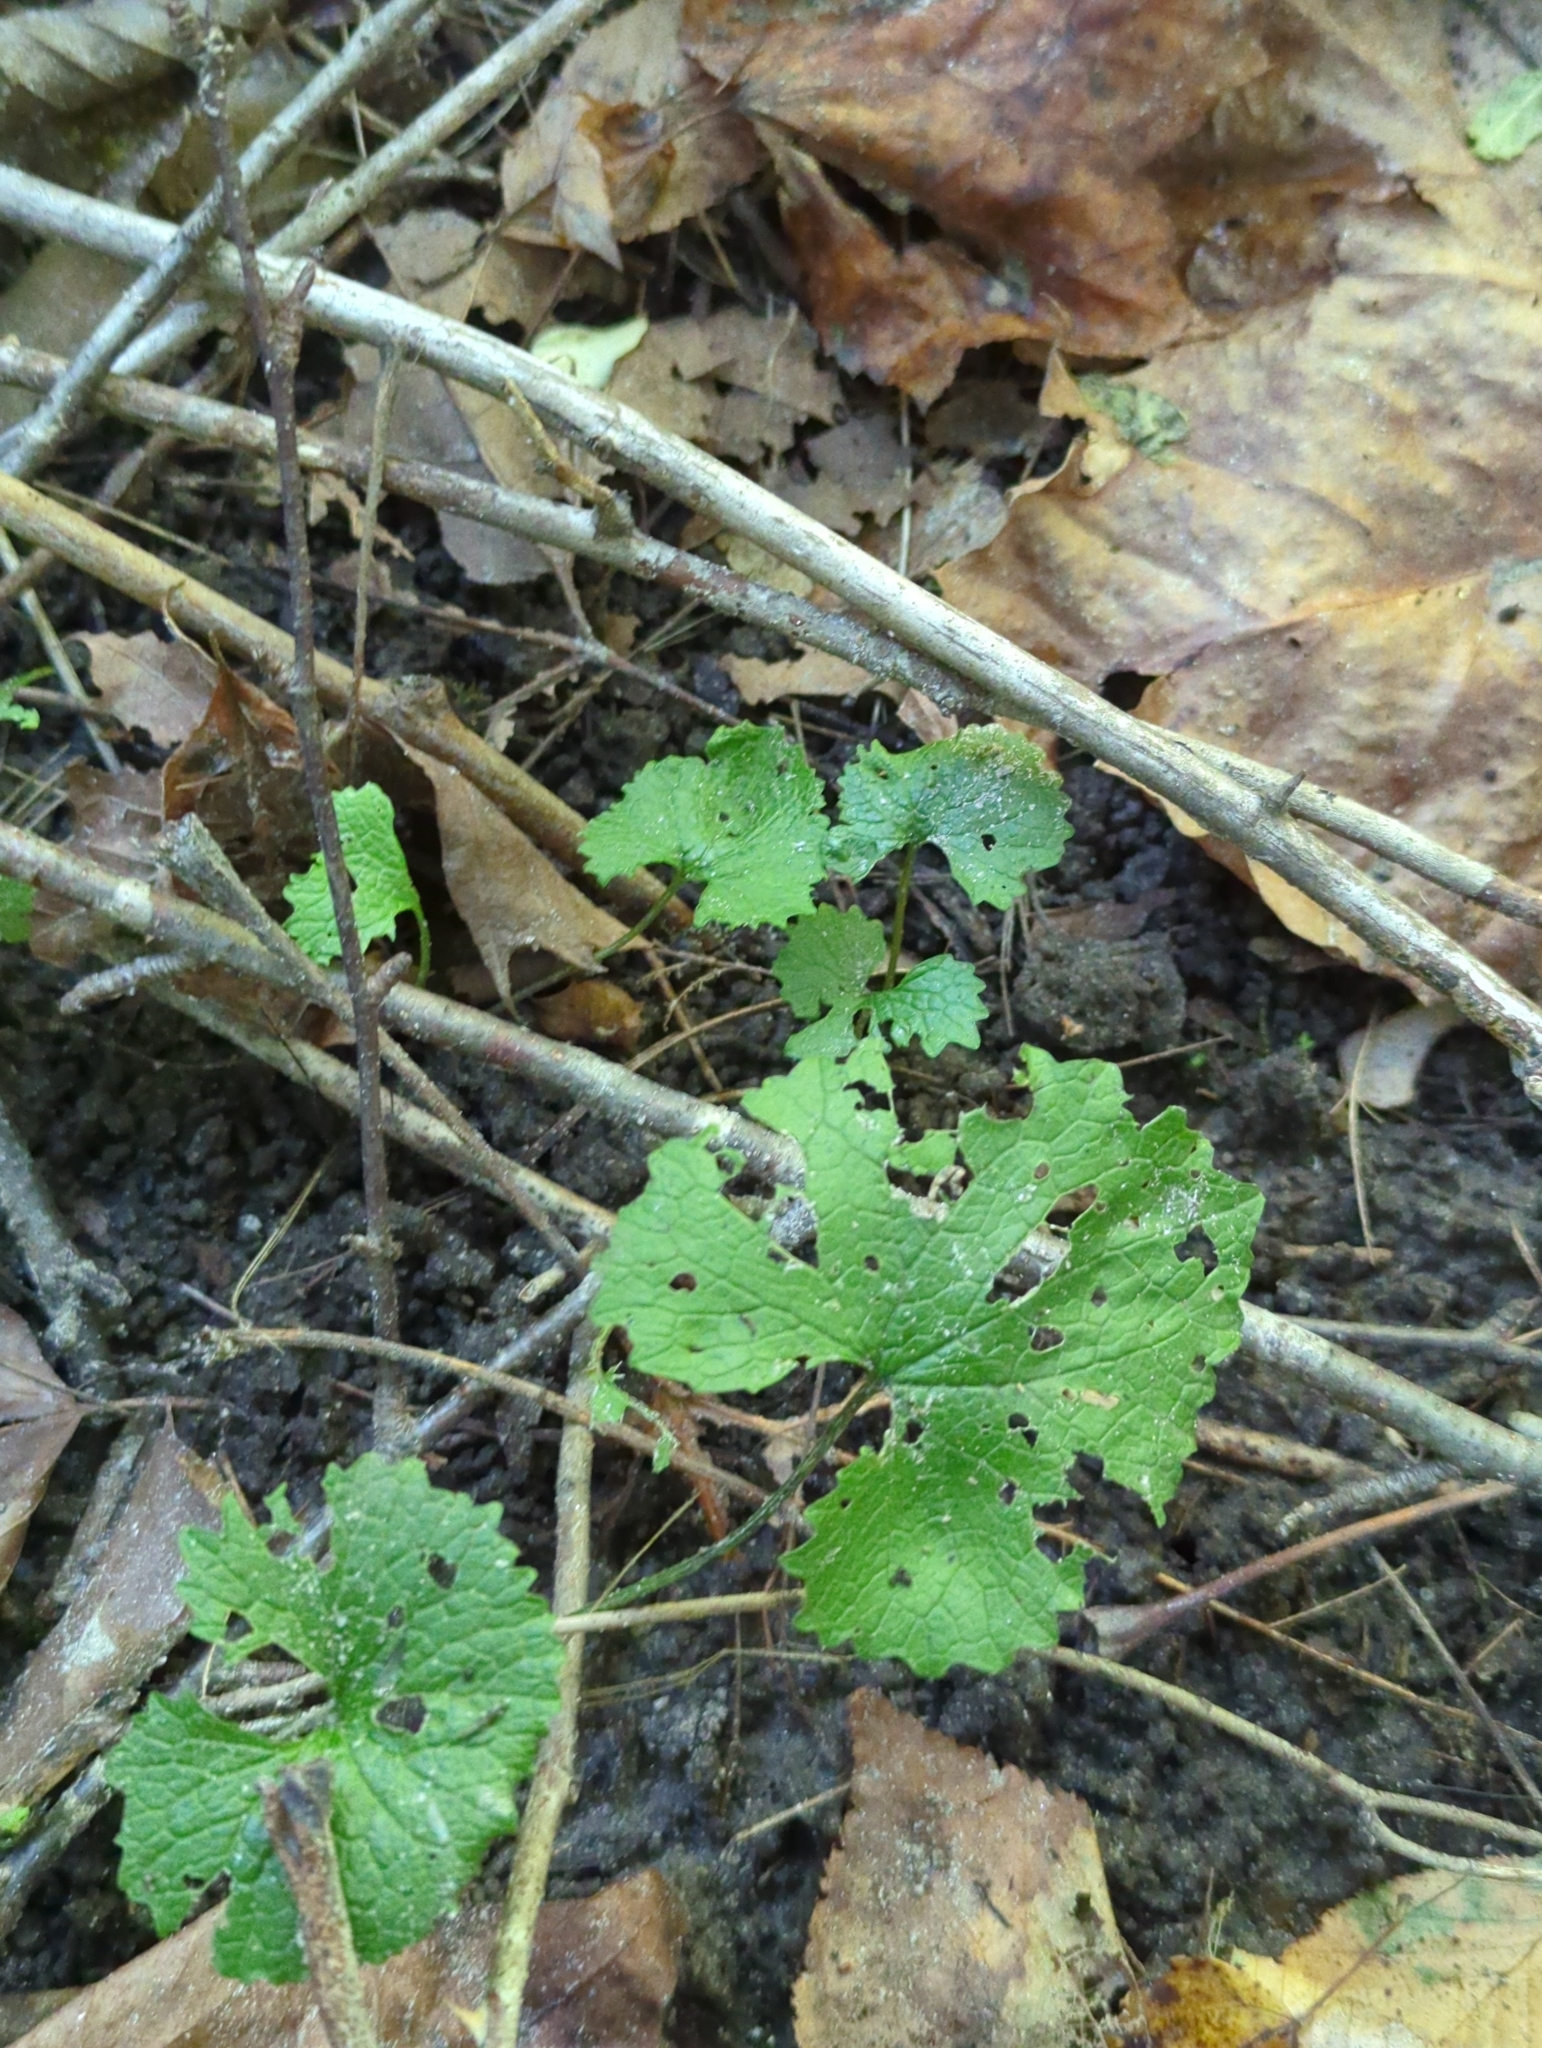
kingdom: Plantae
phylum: Tracheophyta
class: Magnoliopsida
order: Brassicales
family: Brassicaceae
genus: Alliaria
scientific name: Alliaria petiolata
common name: Garlic mustard
